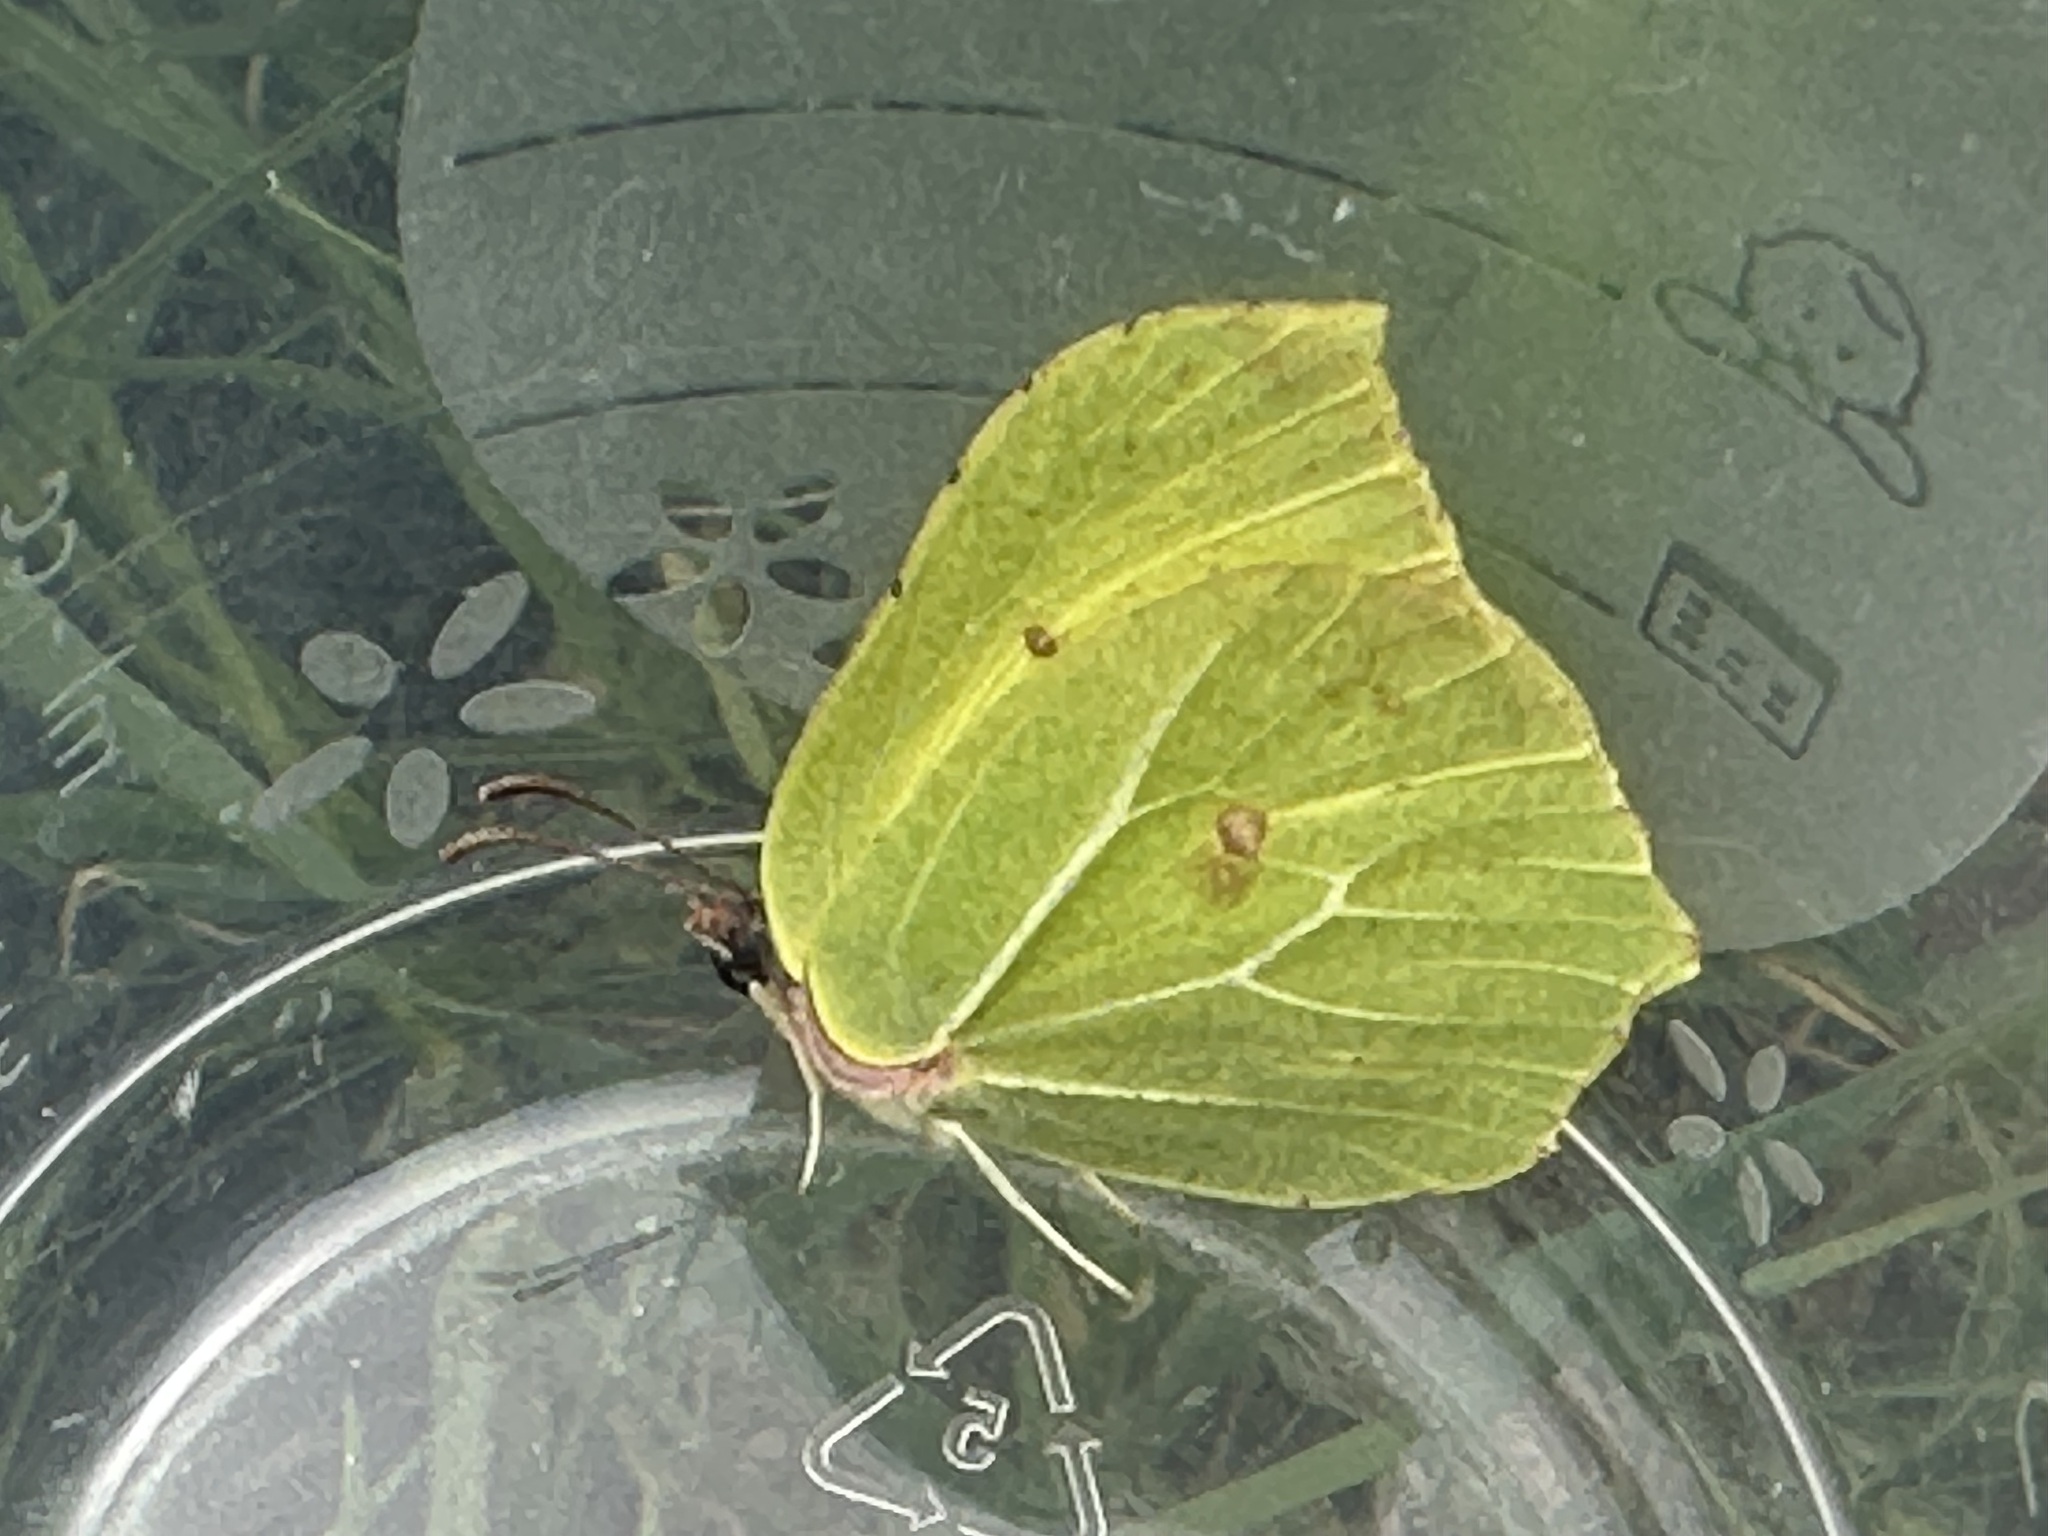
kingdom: Animalia
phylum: Arthropoda
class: Insecta
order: Lepidoptera
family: Pieridae
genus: Gonepteryx
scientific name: Gonepteryx rhamni
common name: Brimstone
